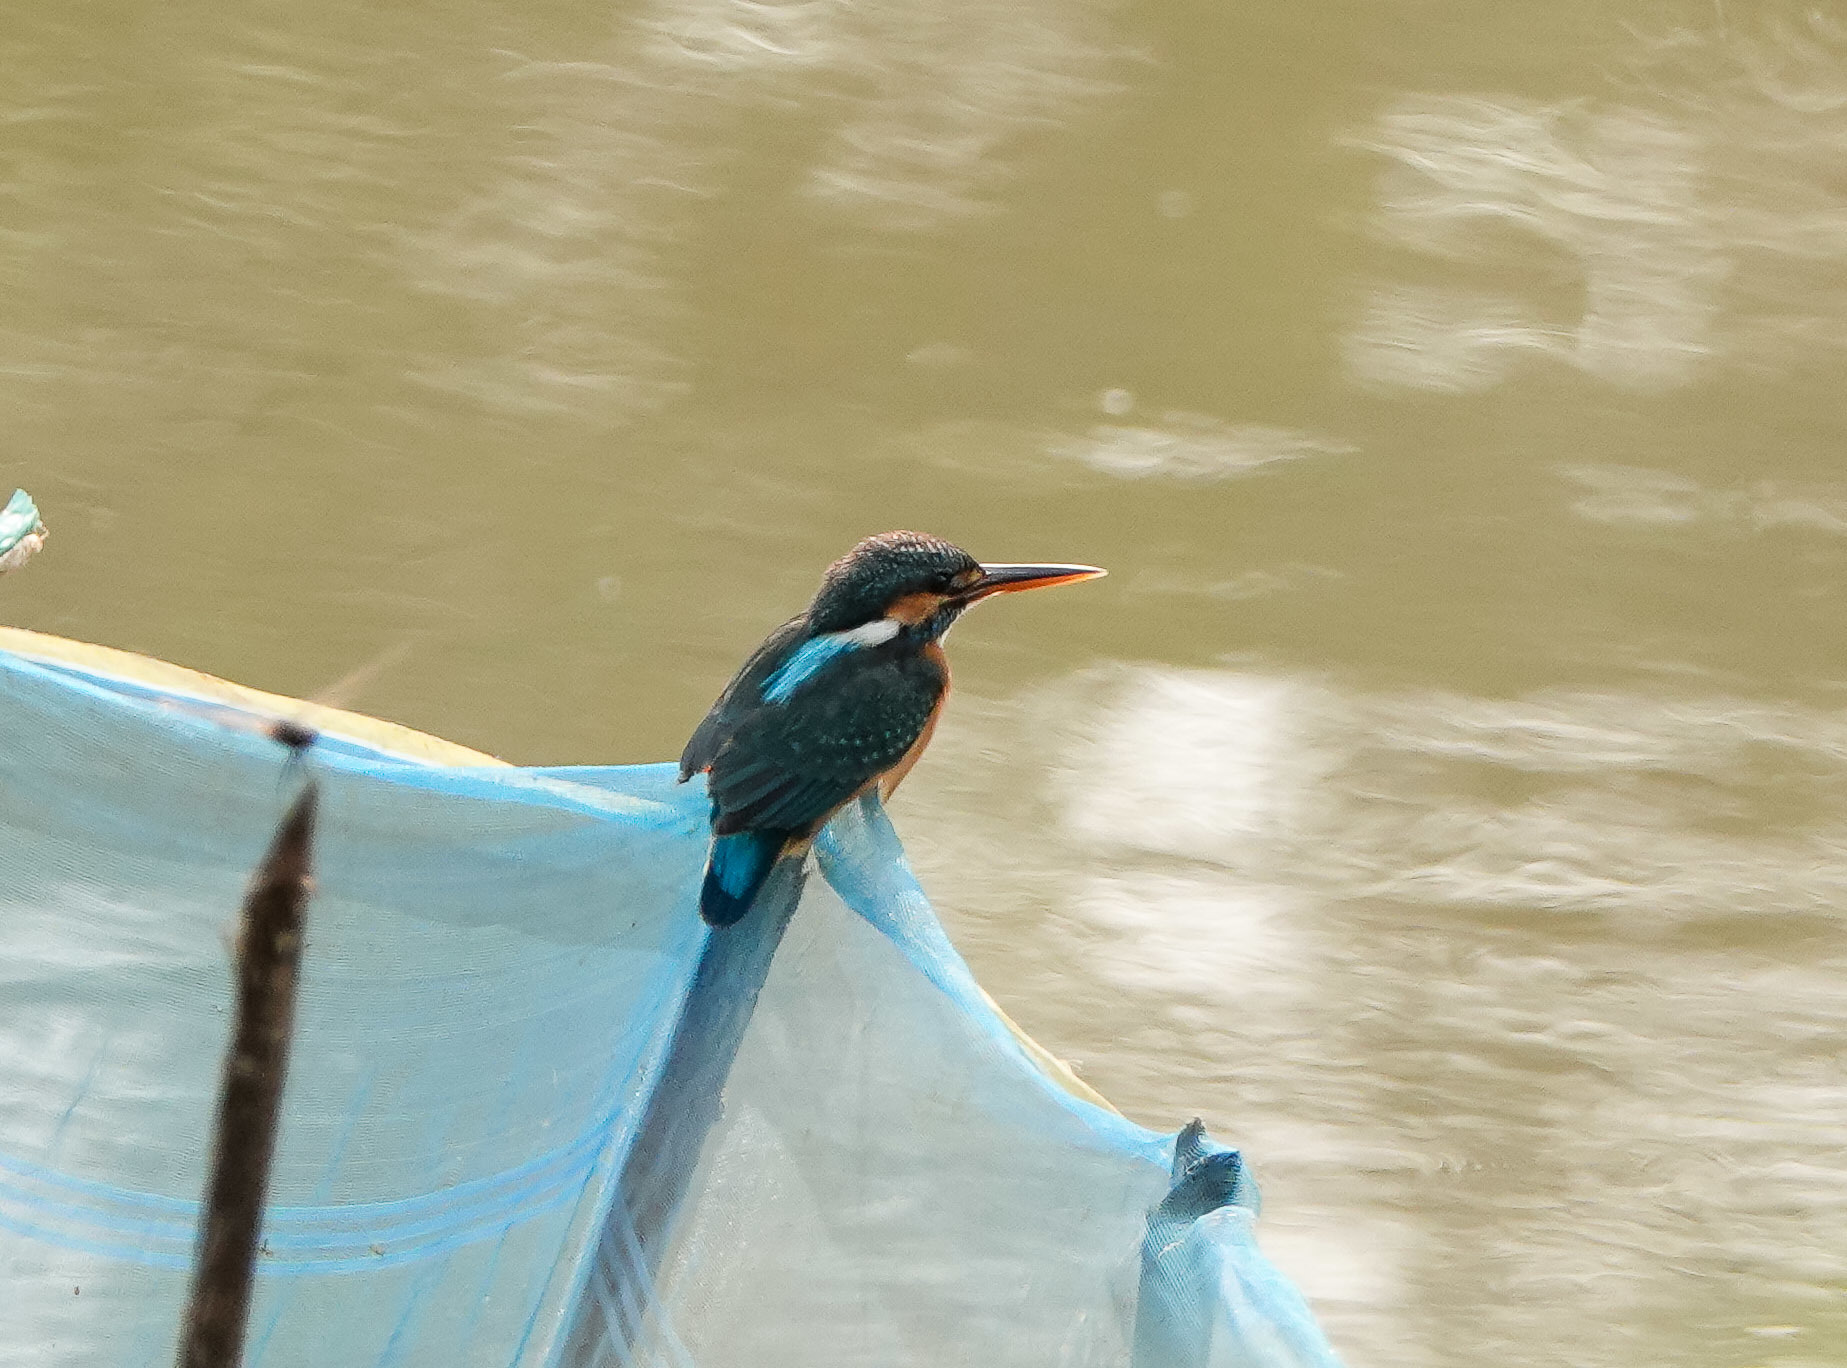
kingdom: Animalia
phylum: Chordata
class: Aves
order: Coraciiformes
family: Alcedinidae
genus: Alcedo
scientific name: Alcedo atthis
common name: Common kingfisher
